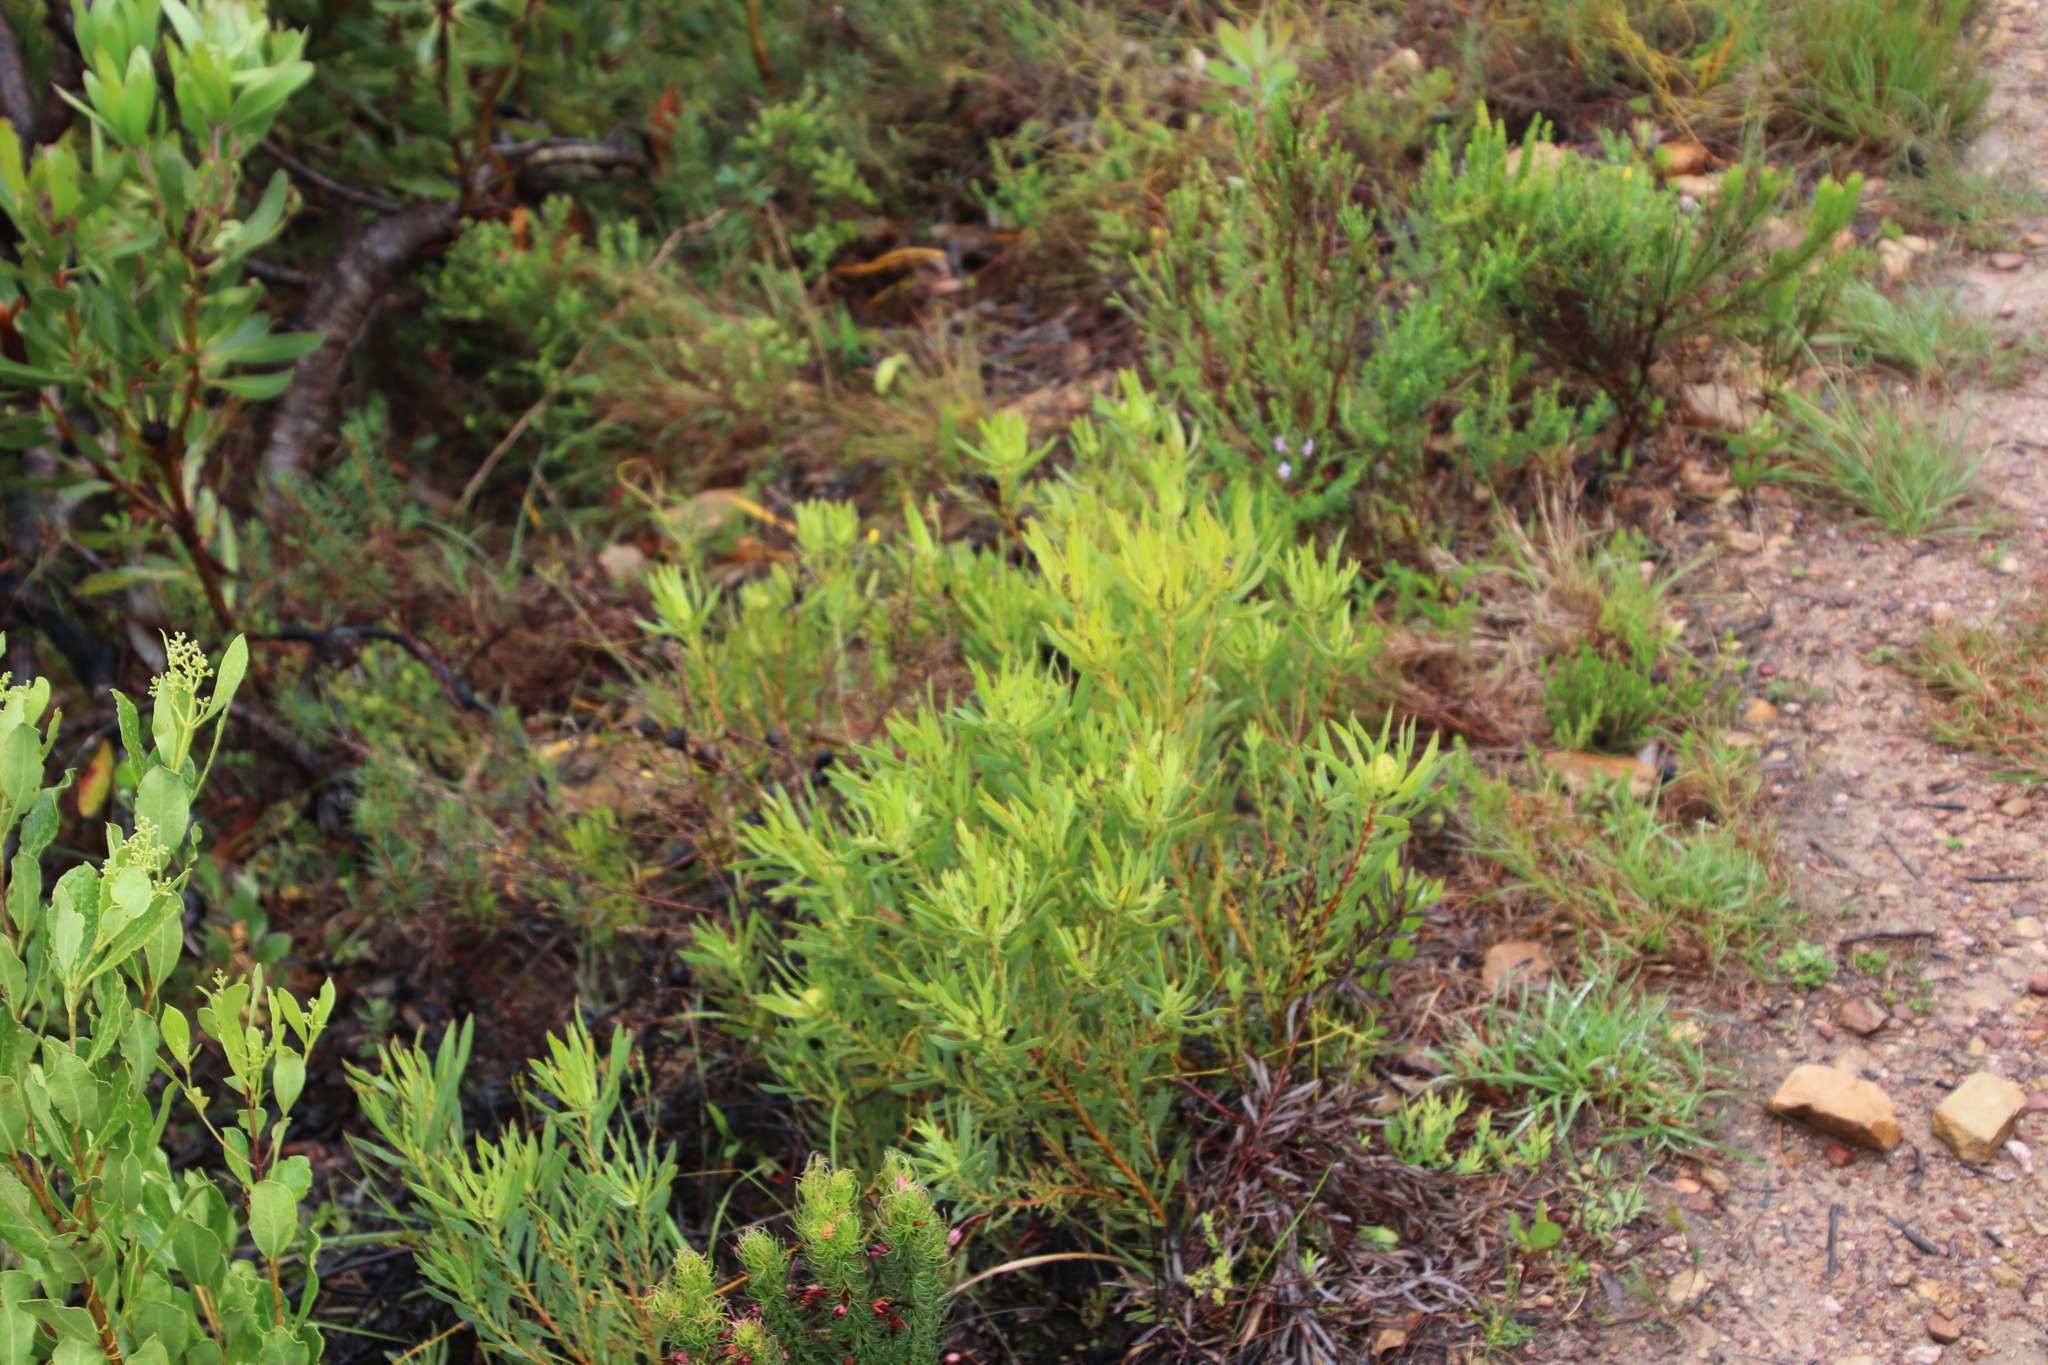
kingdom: Plantae
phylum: Tracheophyta
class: Magnoliopsida
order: Proteales
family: Proteaceae
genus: Leucadendron
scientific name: Leucadendron salignum
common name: Common sunshine conebush
